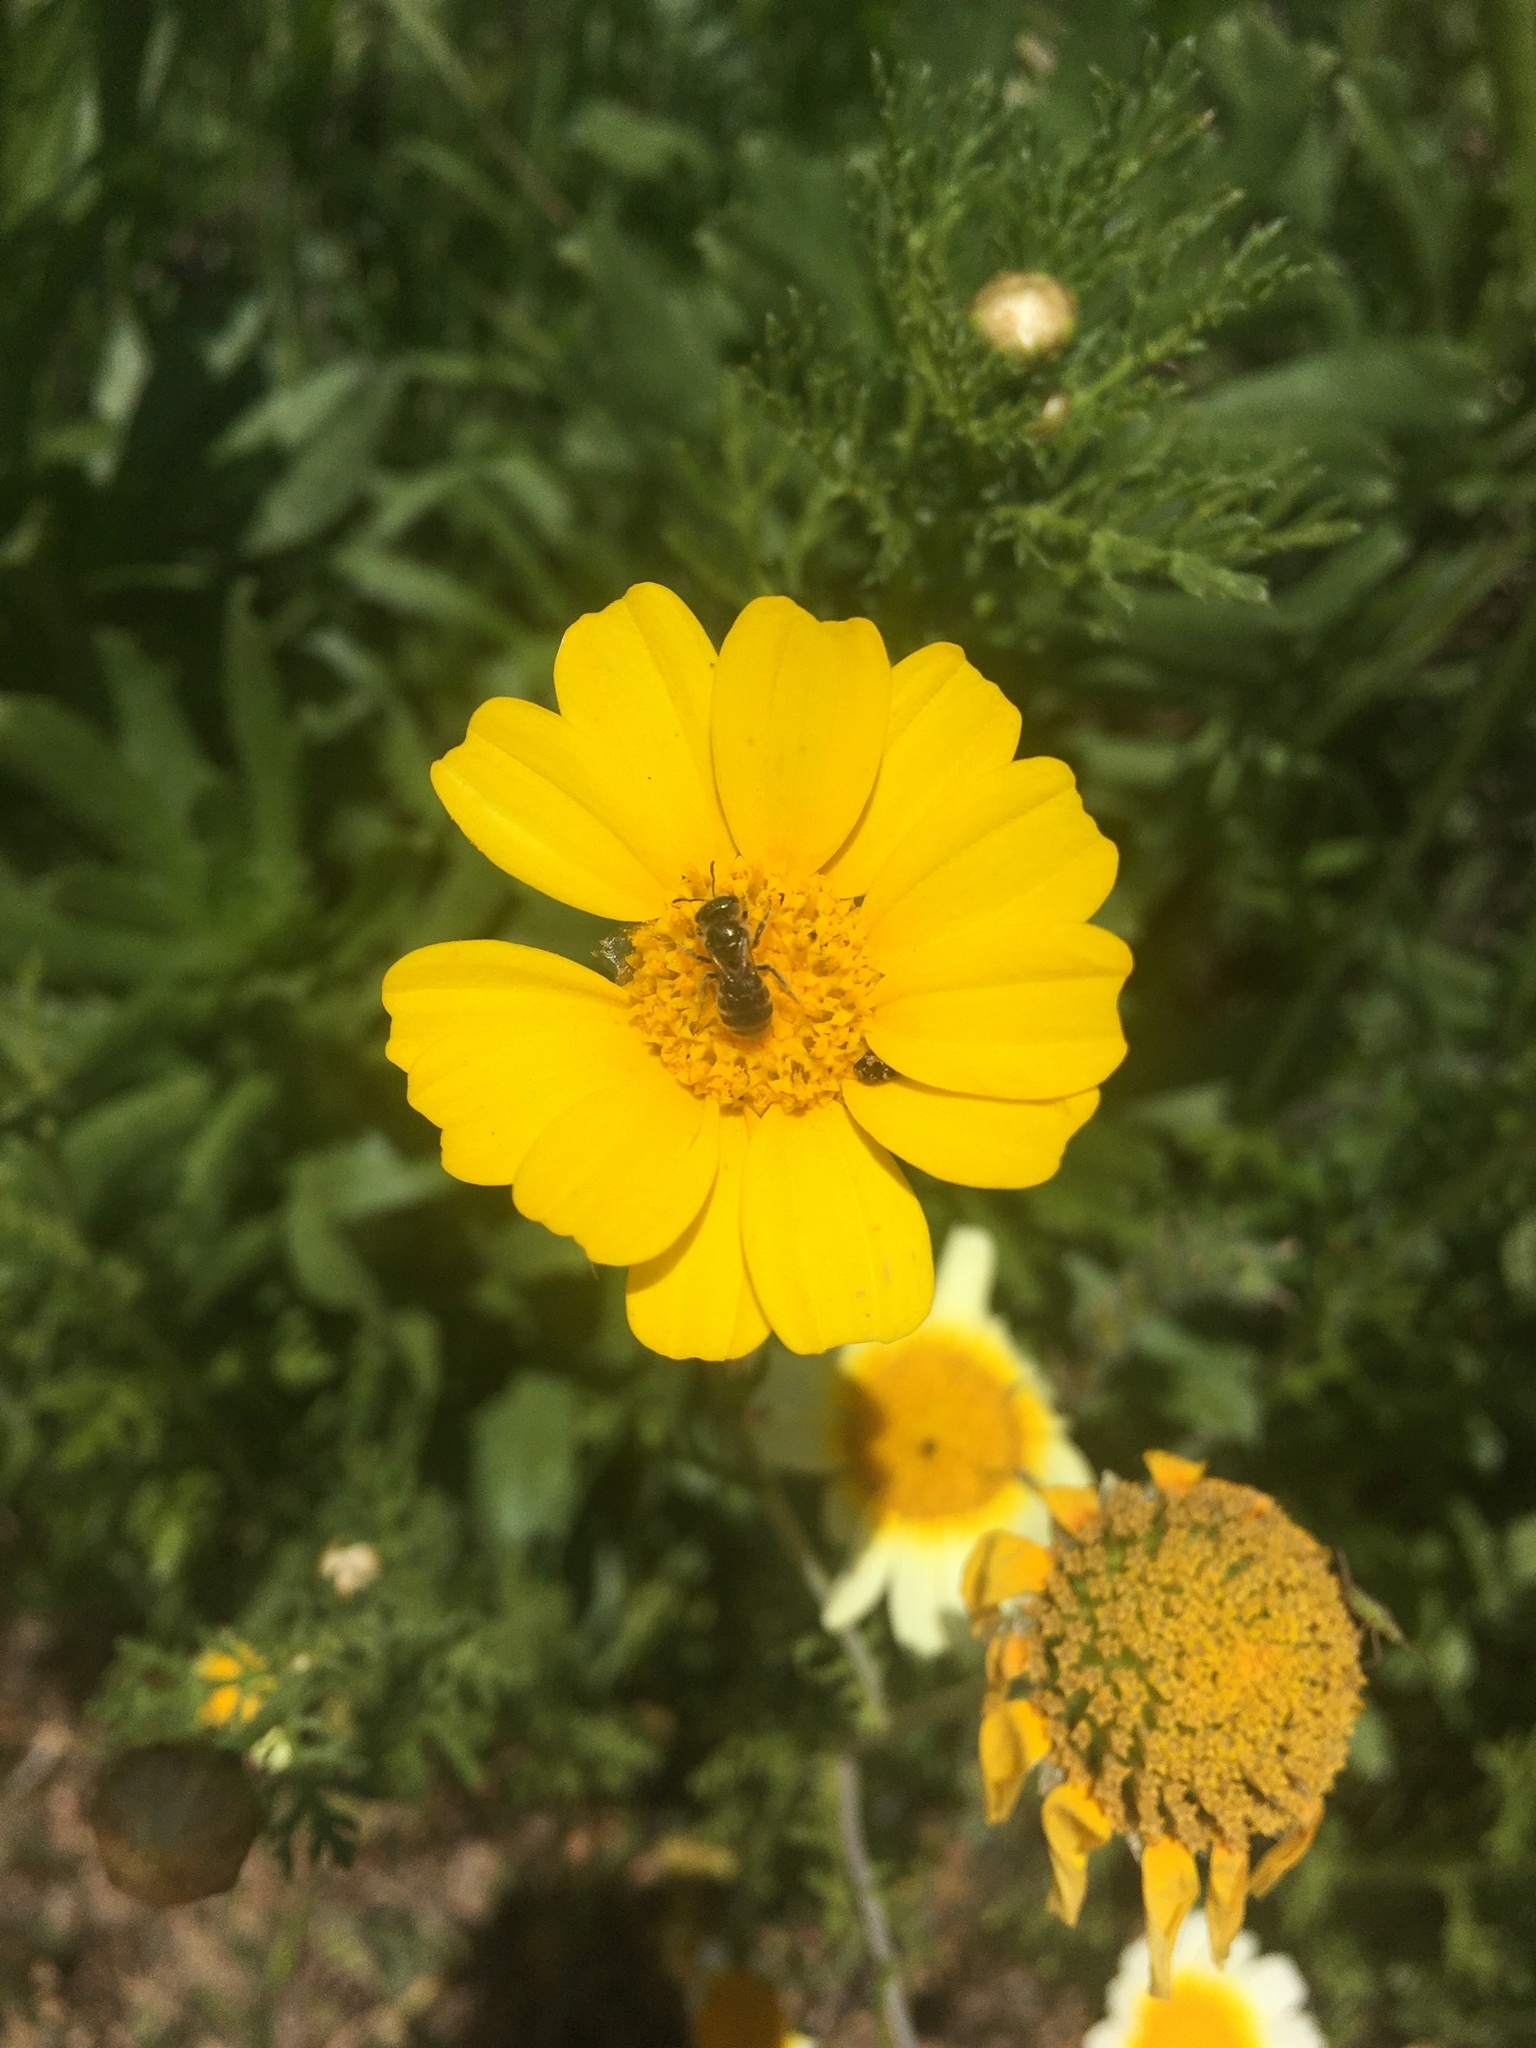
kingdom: Animalia
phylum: Arthropoda
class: Insecta
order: Hymenoptera
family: Halictidae
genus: Halictus
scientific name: Halictus tripartitus
